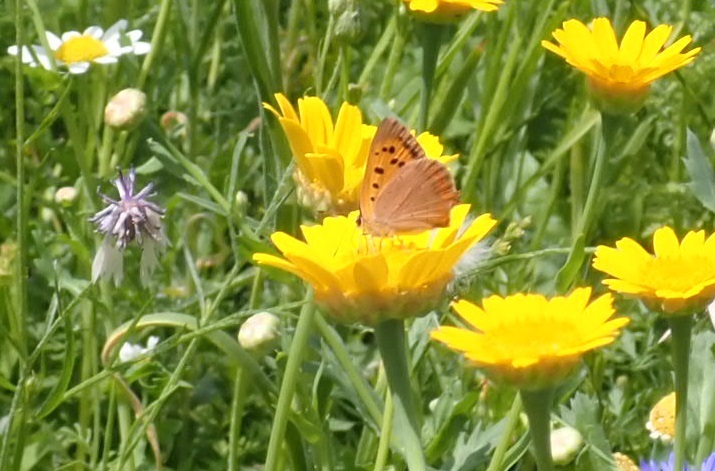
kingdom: Animalia
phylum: Arthropoda
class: Insecta
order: Lepidoptera
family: Lycaenidae
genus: Lycaena
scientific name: Lycaena phlaeas
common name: Small copper
